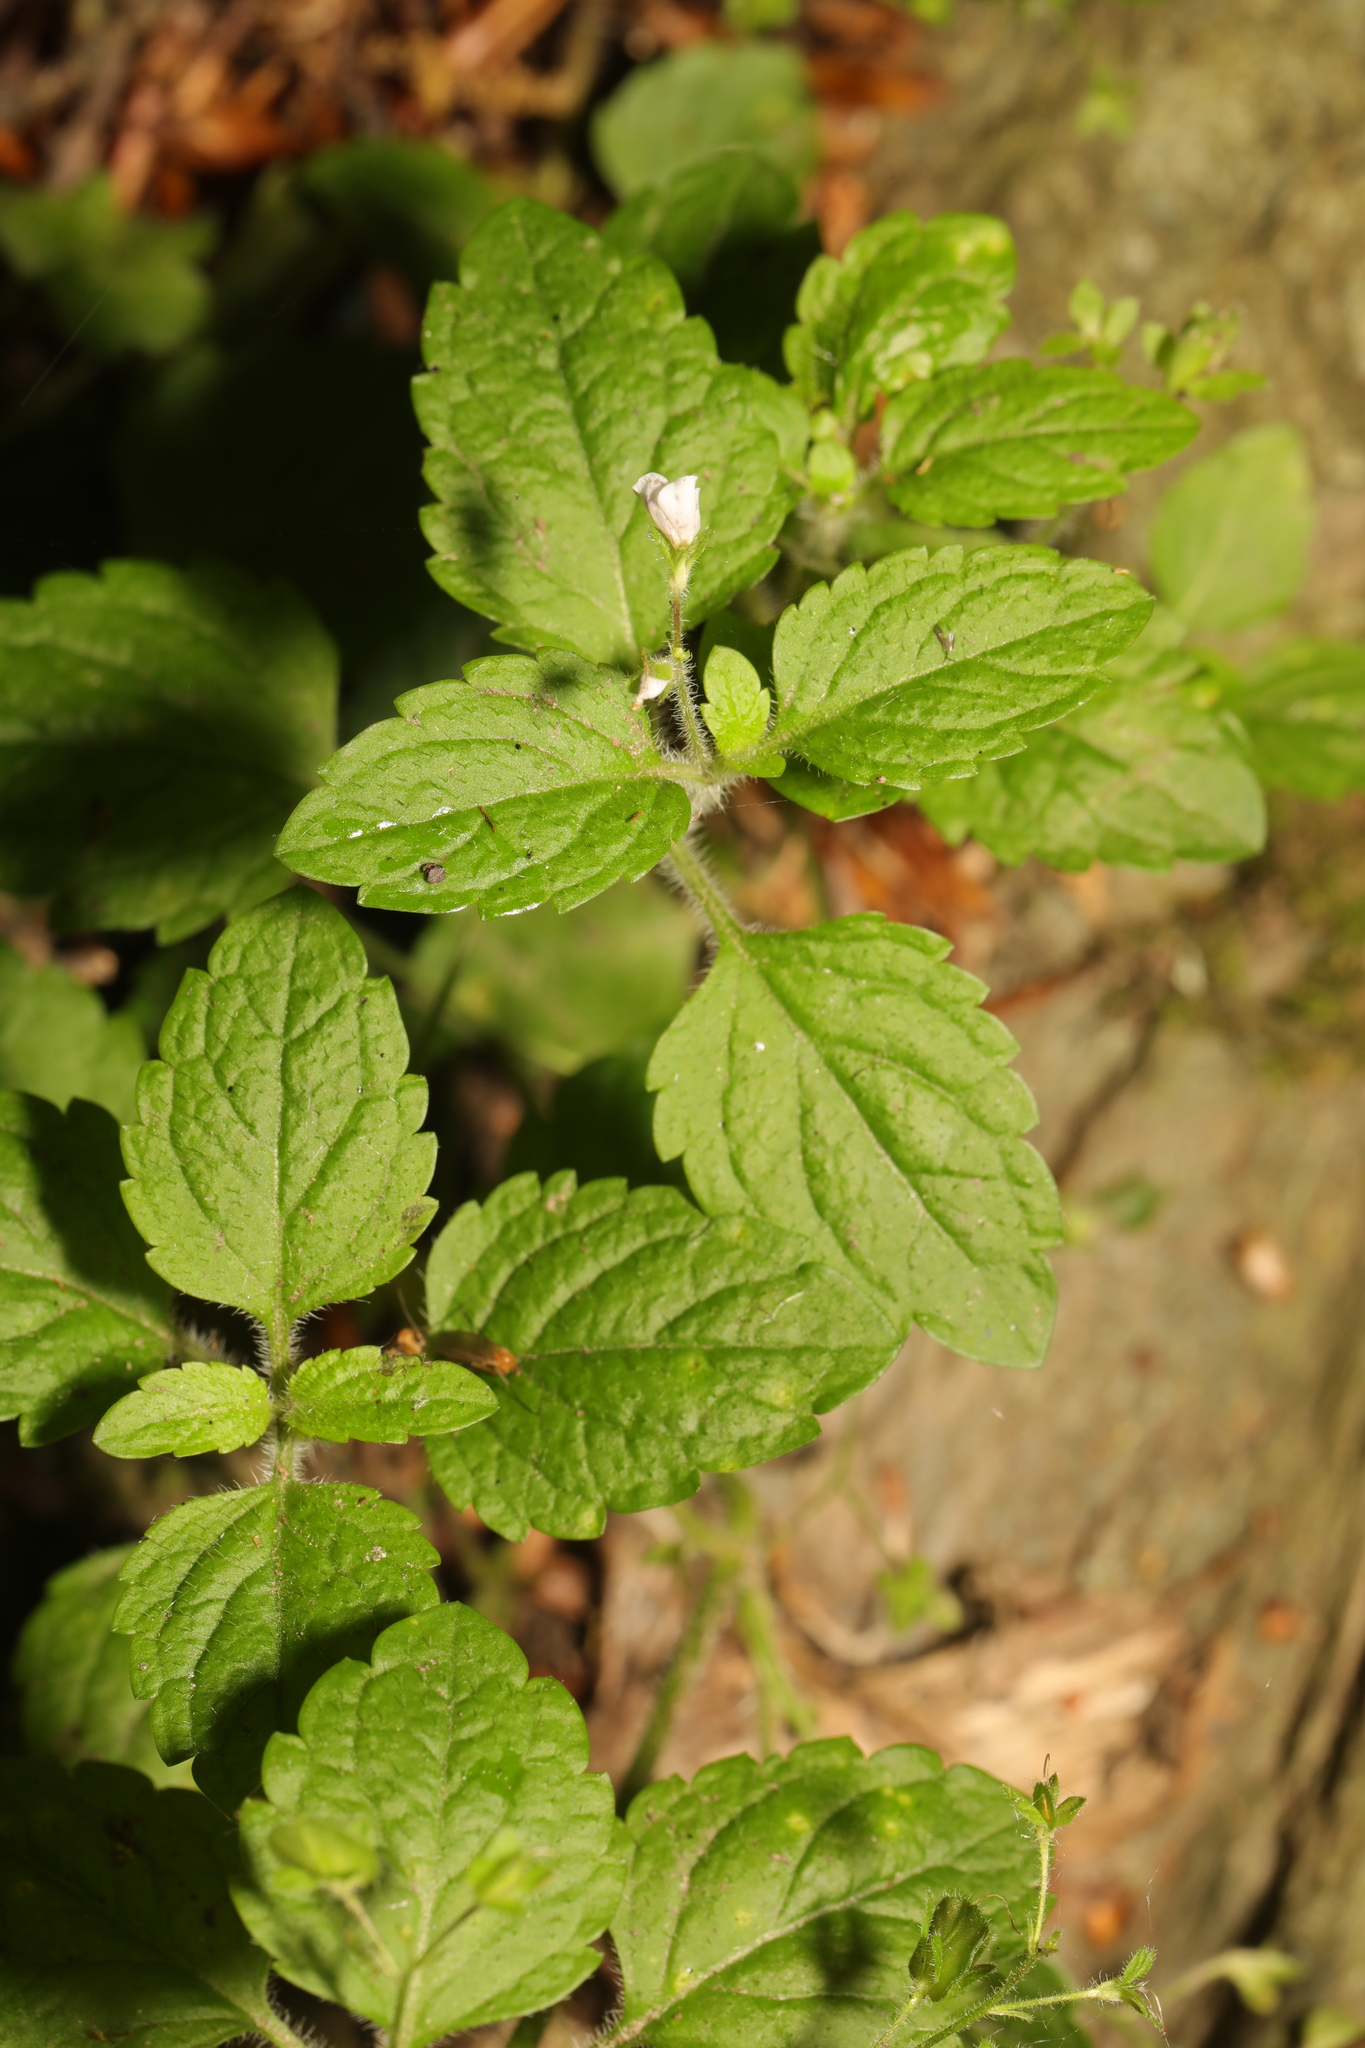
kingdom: Plantae
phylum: Tracheophyta
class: Magnoliopsida
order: Lamiales
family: Plantaginaceae
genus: Veronica
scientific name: Veronica montana
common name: Wood speedwell
